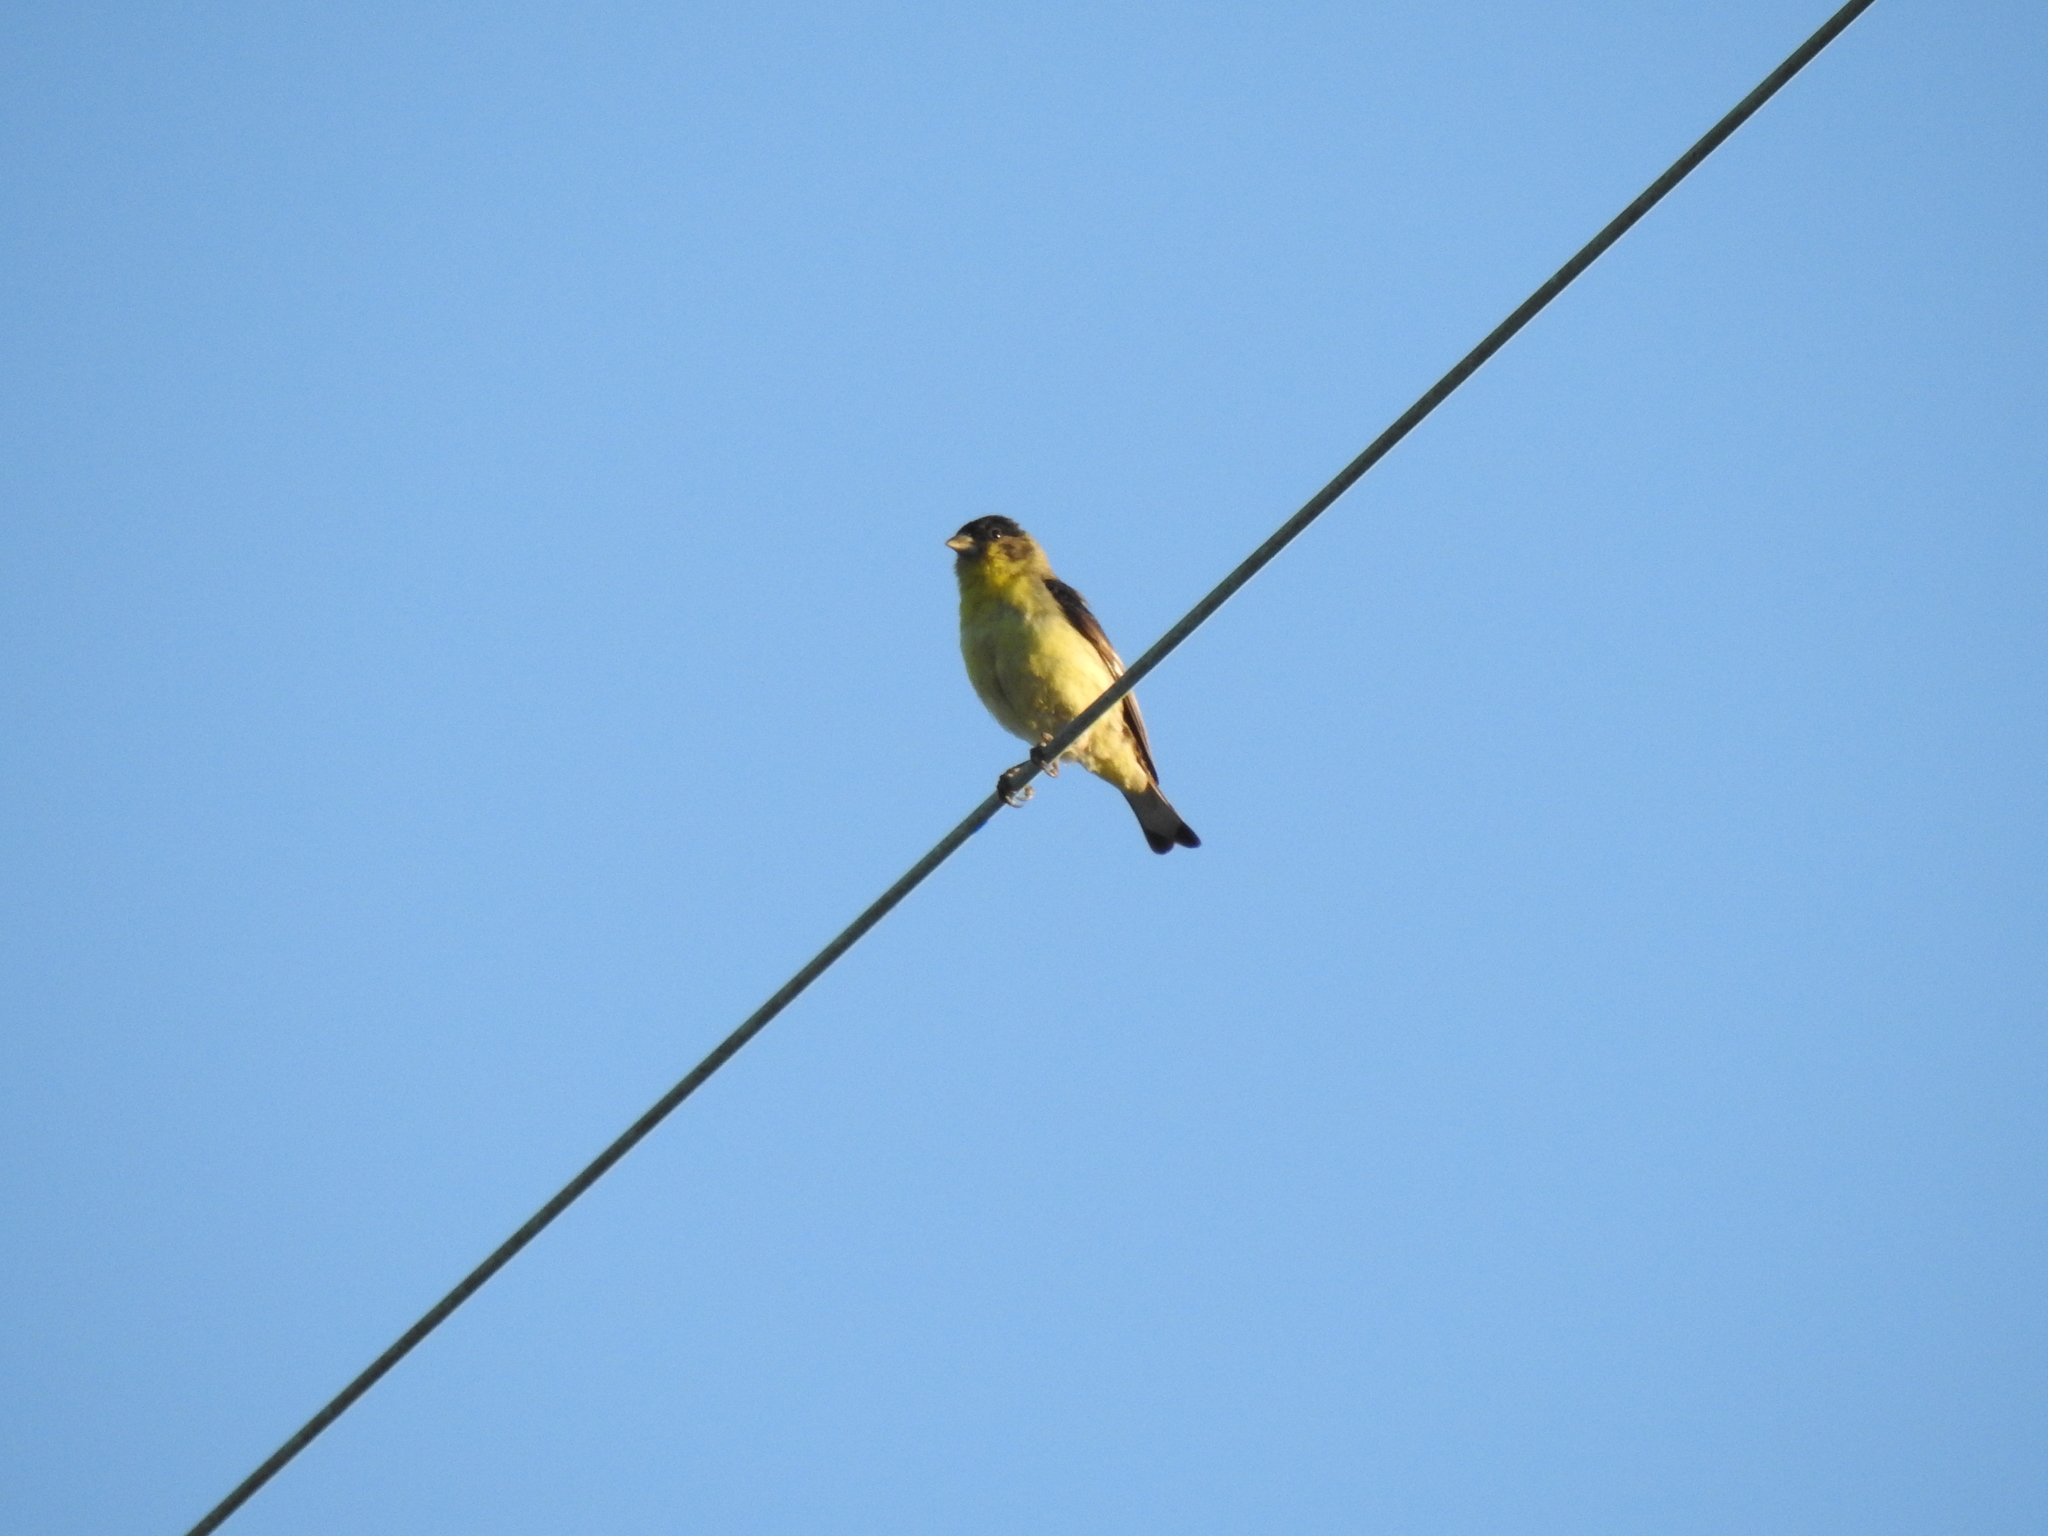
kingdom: Animalia
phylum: Chordata
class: Aves
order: Passeriformes
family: Fringillidae
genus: Spinus
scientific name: Spinus psaltria
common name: Lesser goldfinch
